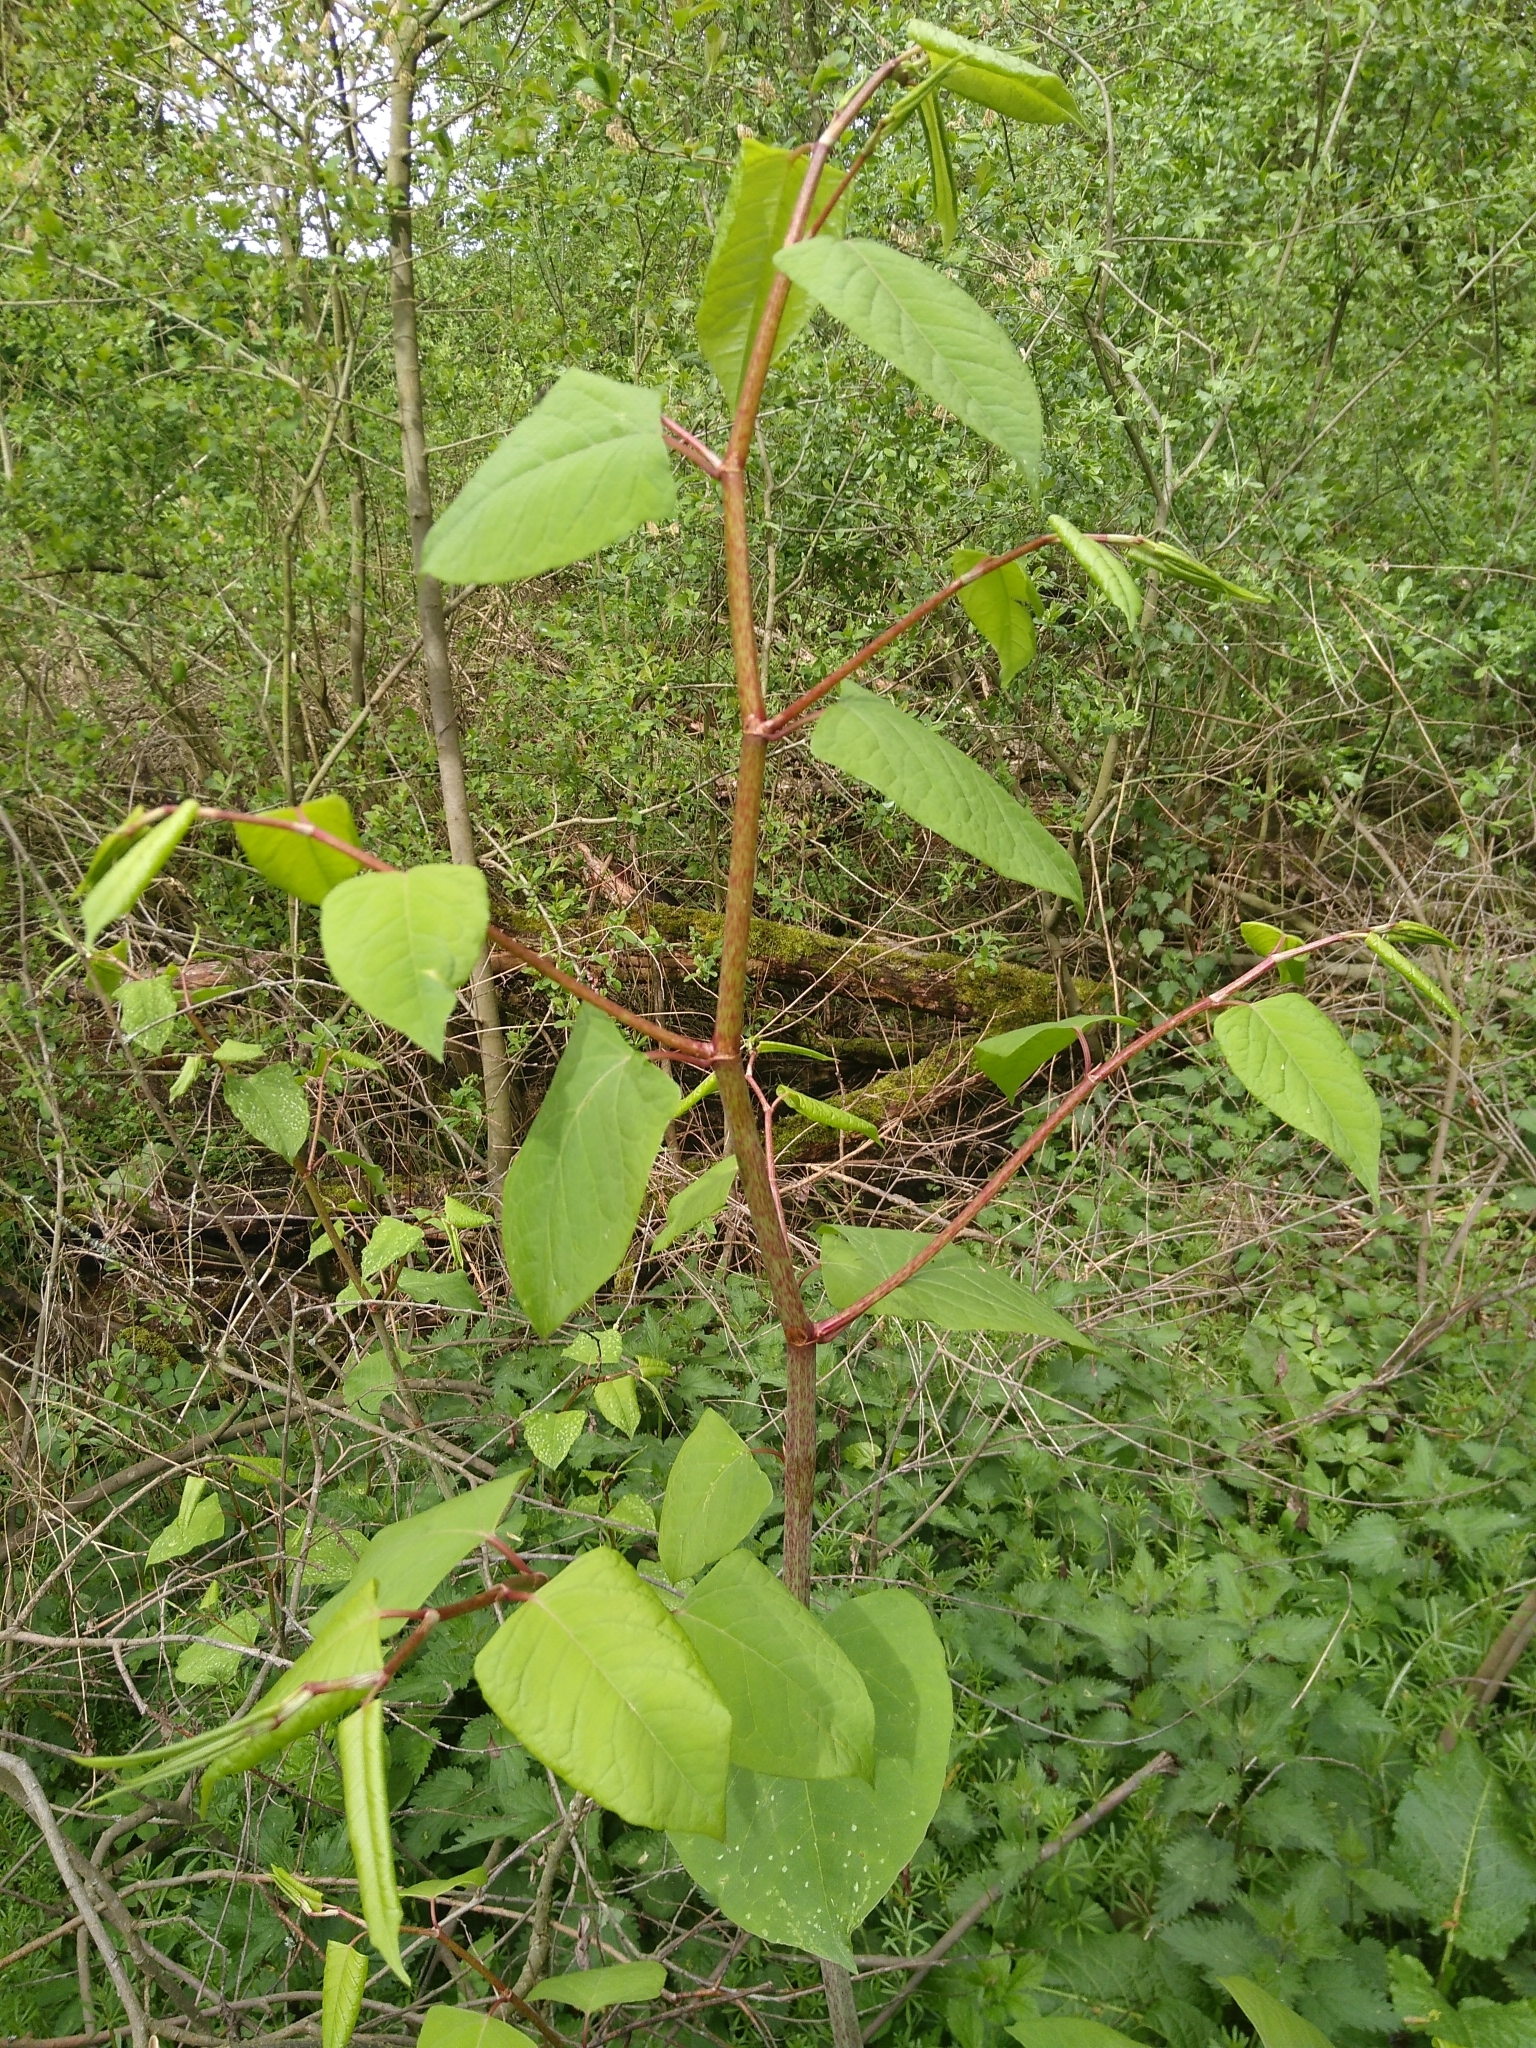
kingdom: Plantae
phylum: Tracheophyta
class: Magnoliopsida
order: Caryophyllales
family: Polygonaceae
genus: Reynoutria
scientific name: Reynoutria japonica
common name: Japanese knotweed
